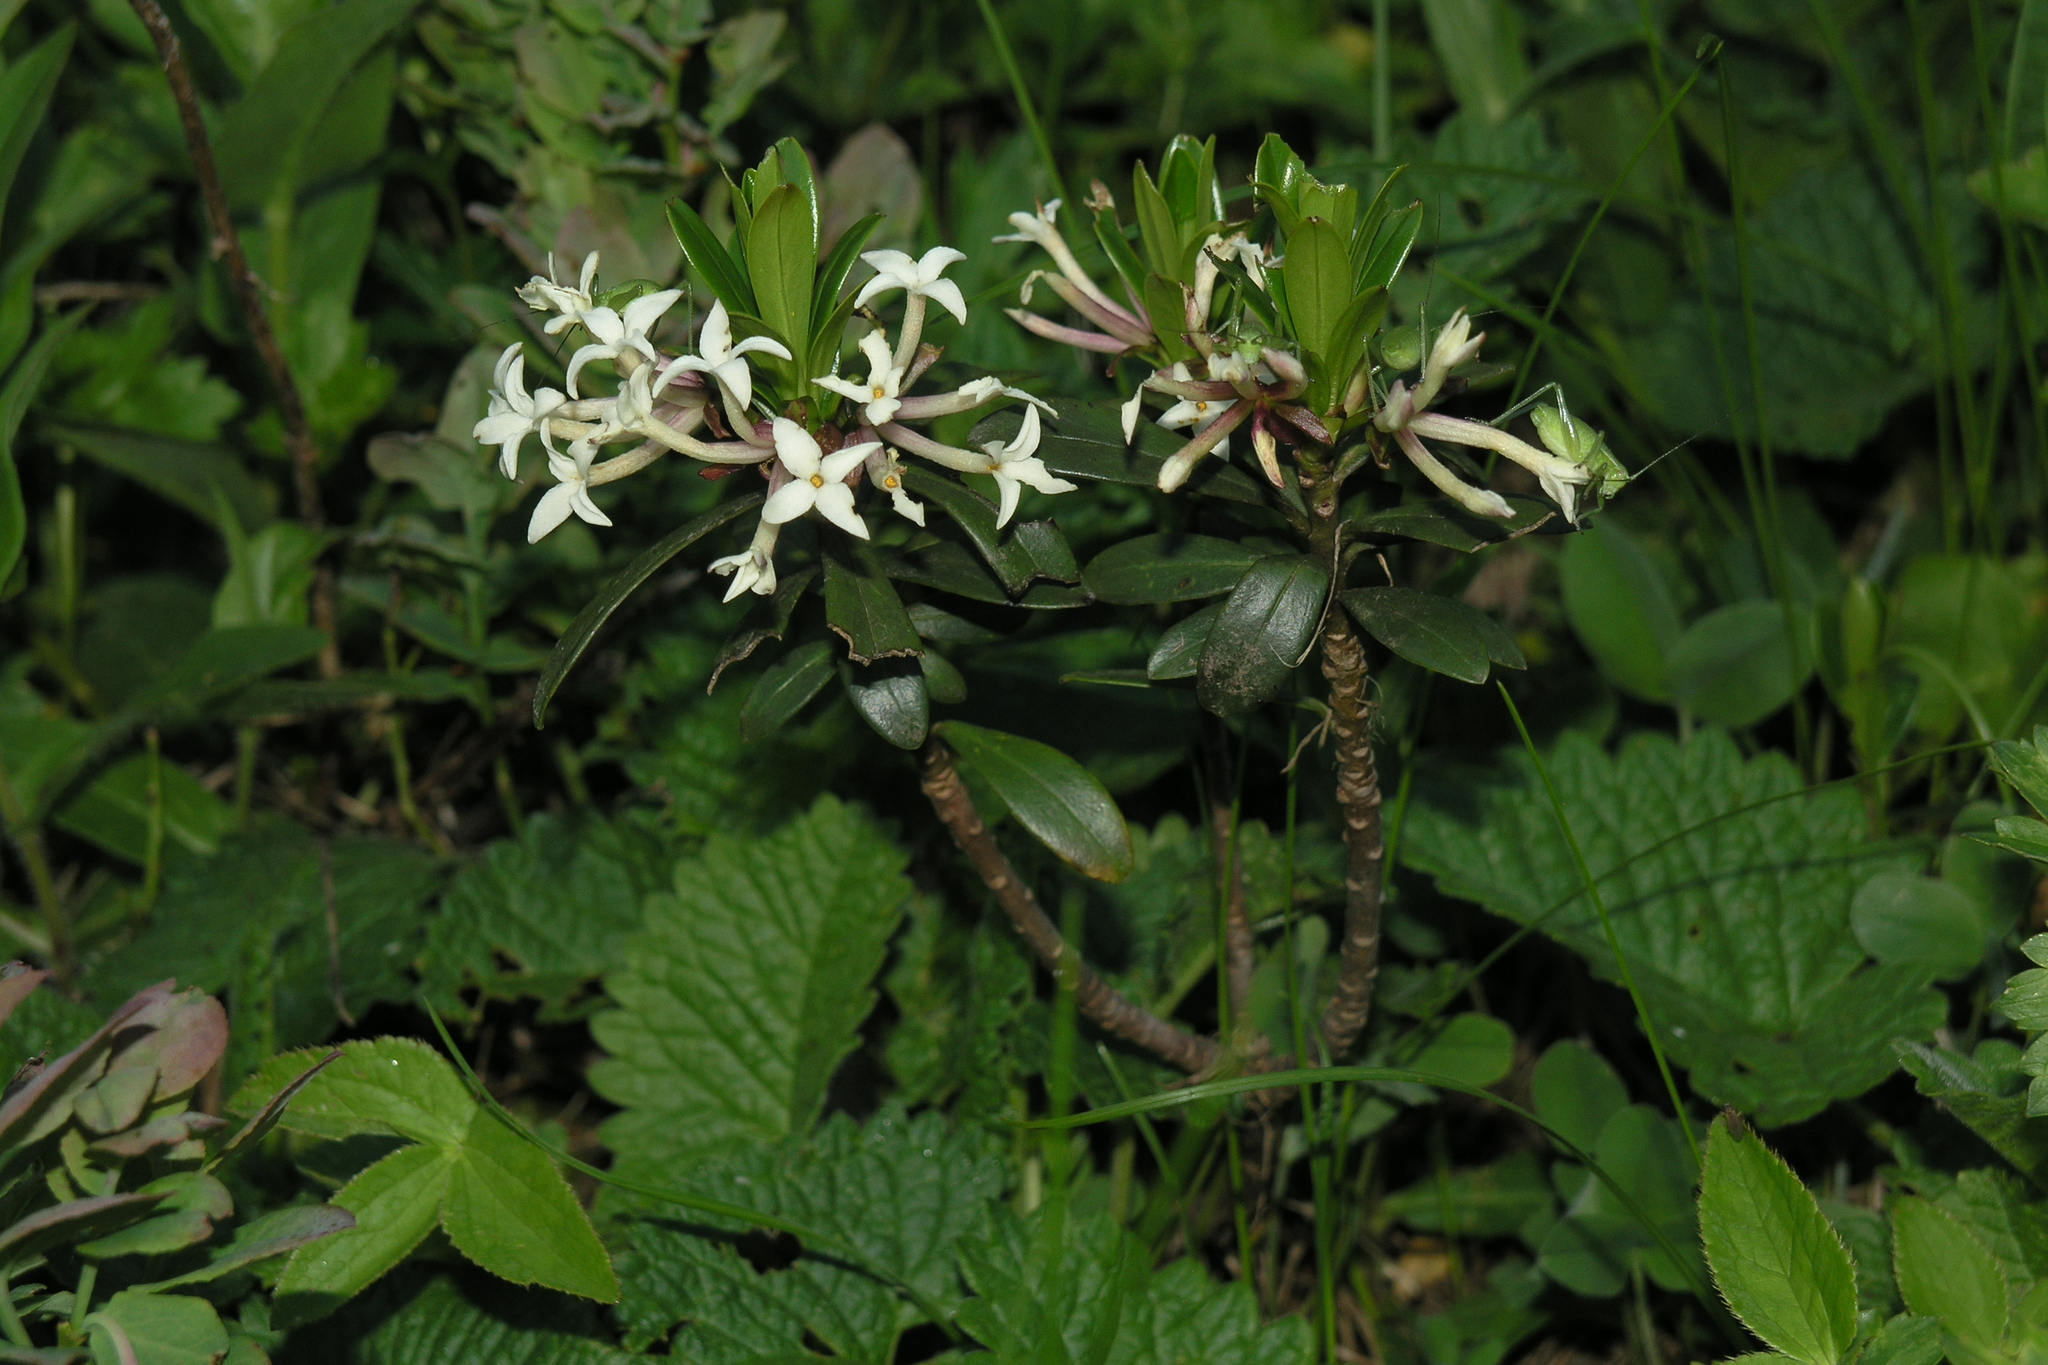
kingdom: Plantae
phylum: Tracheophyta
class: Magnoliopsida
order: Malvales
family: Thymelaeaceae
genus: Daphne
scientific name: Daphne glomerata
